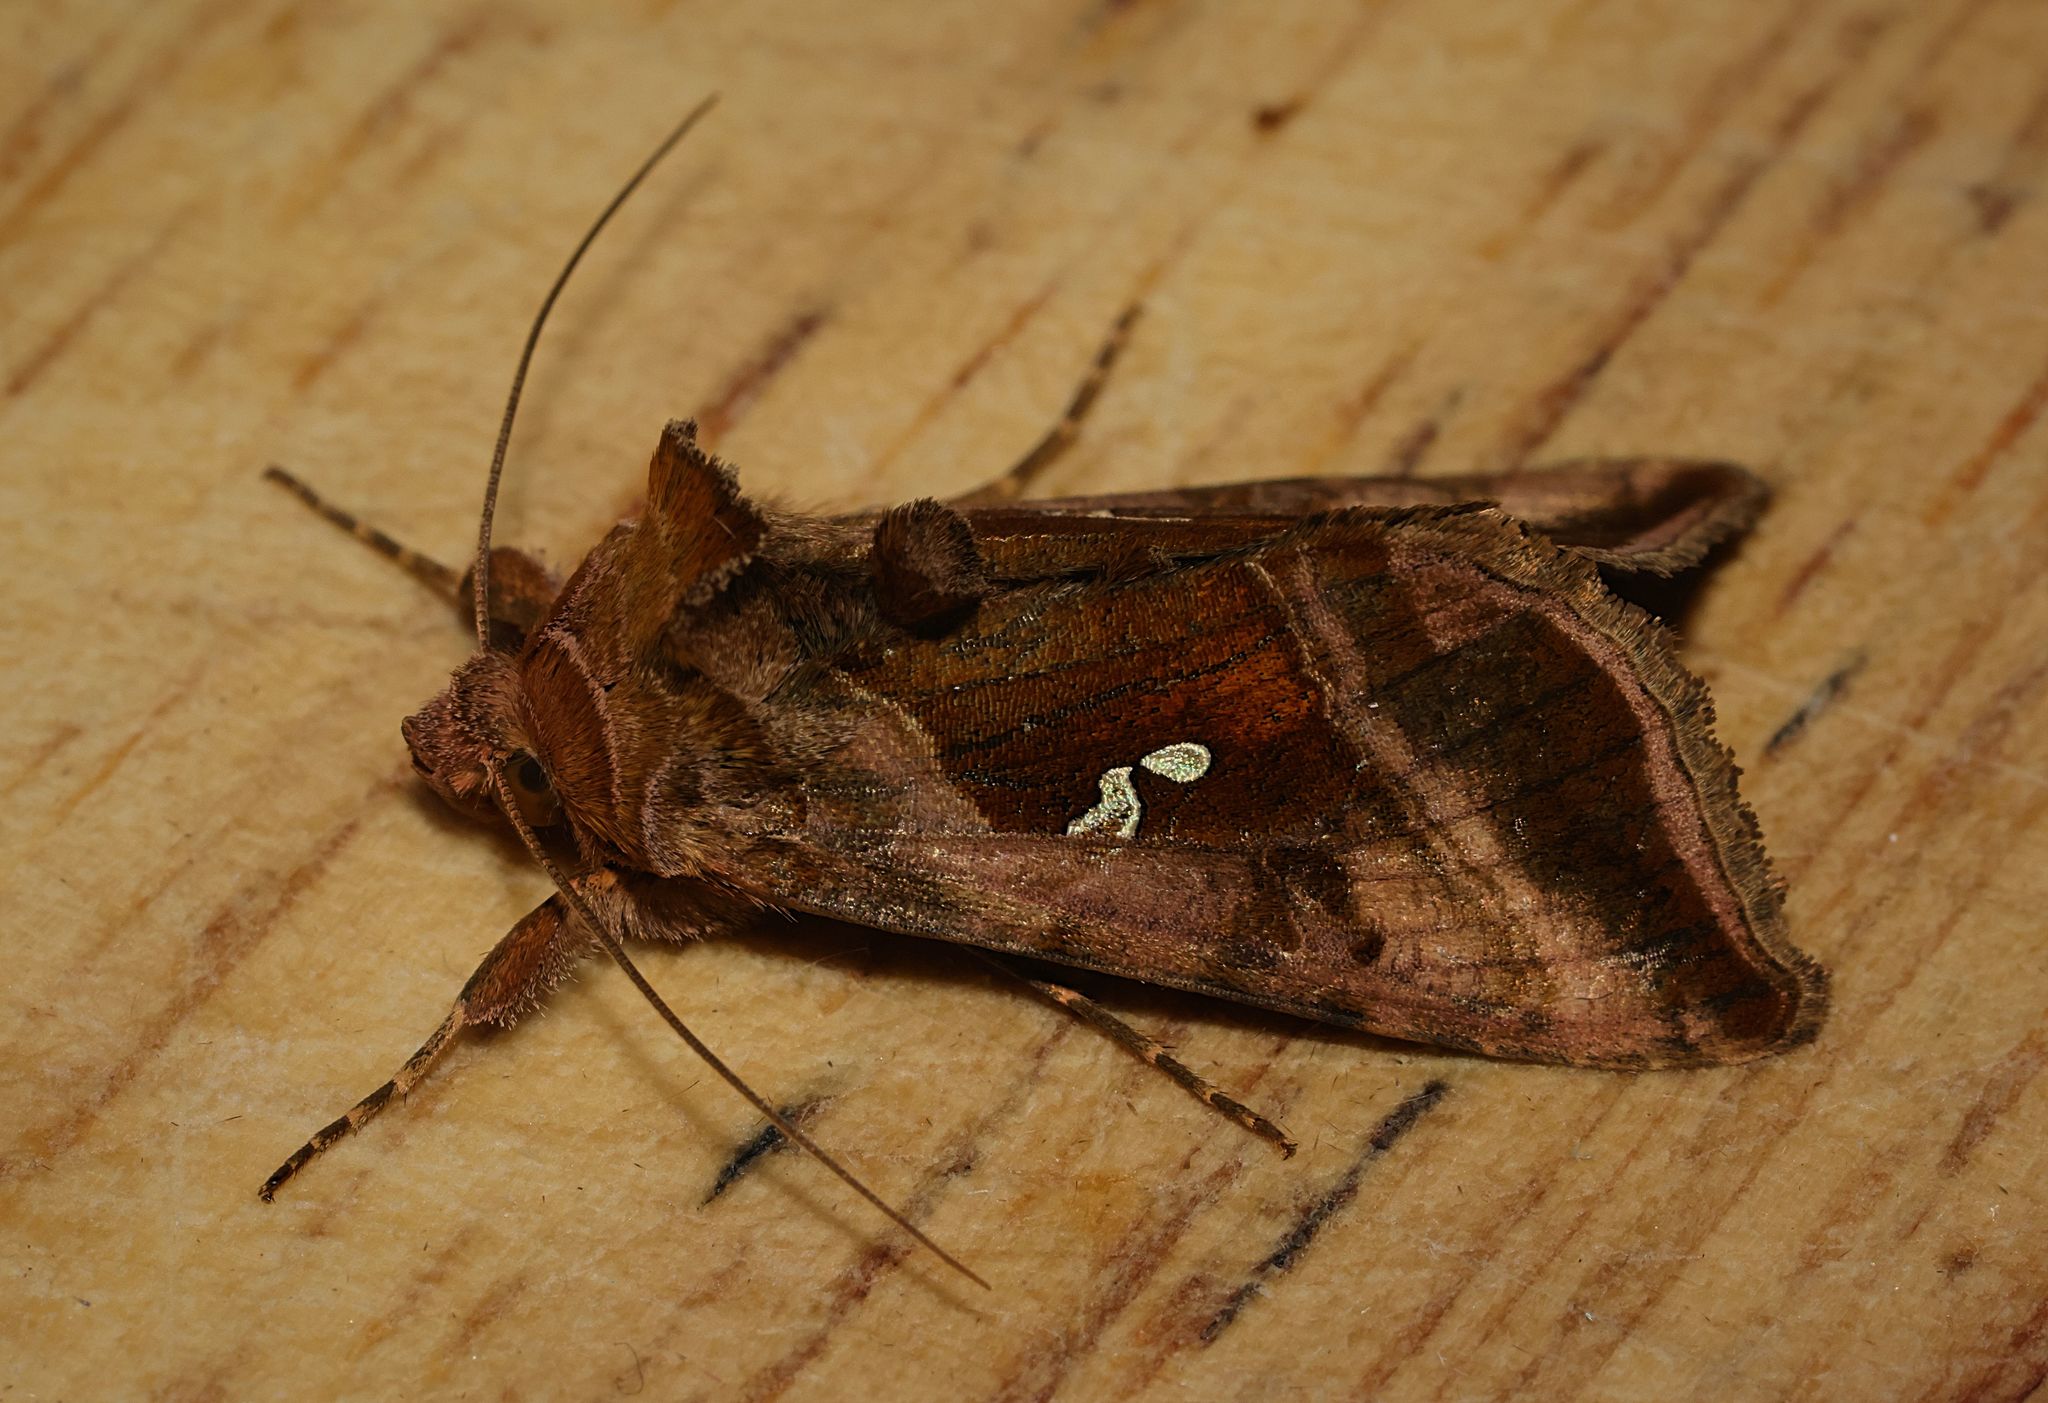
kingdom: Animalia
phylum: Arthropoda
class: Insecta
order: Lepidoptera
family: Noctuidae
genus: Autographa
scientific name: Autographa jota
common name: Plain golden y
